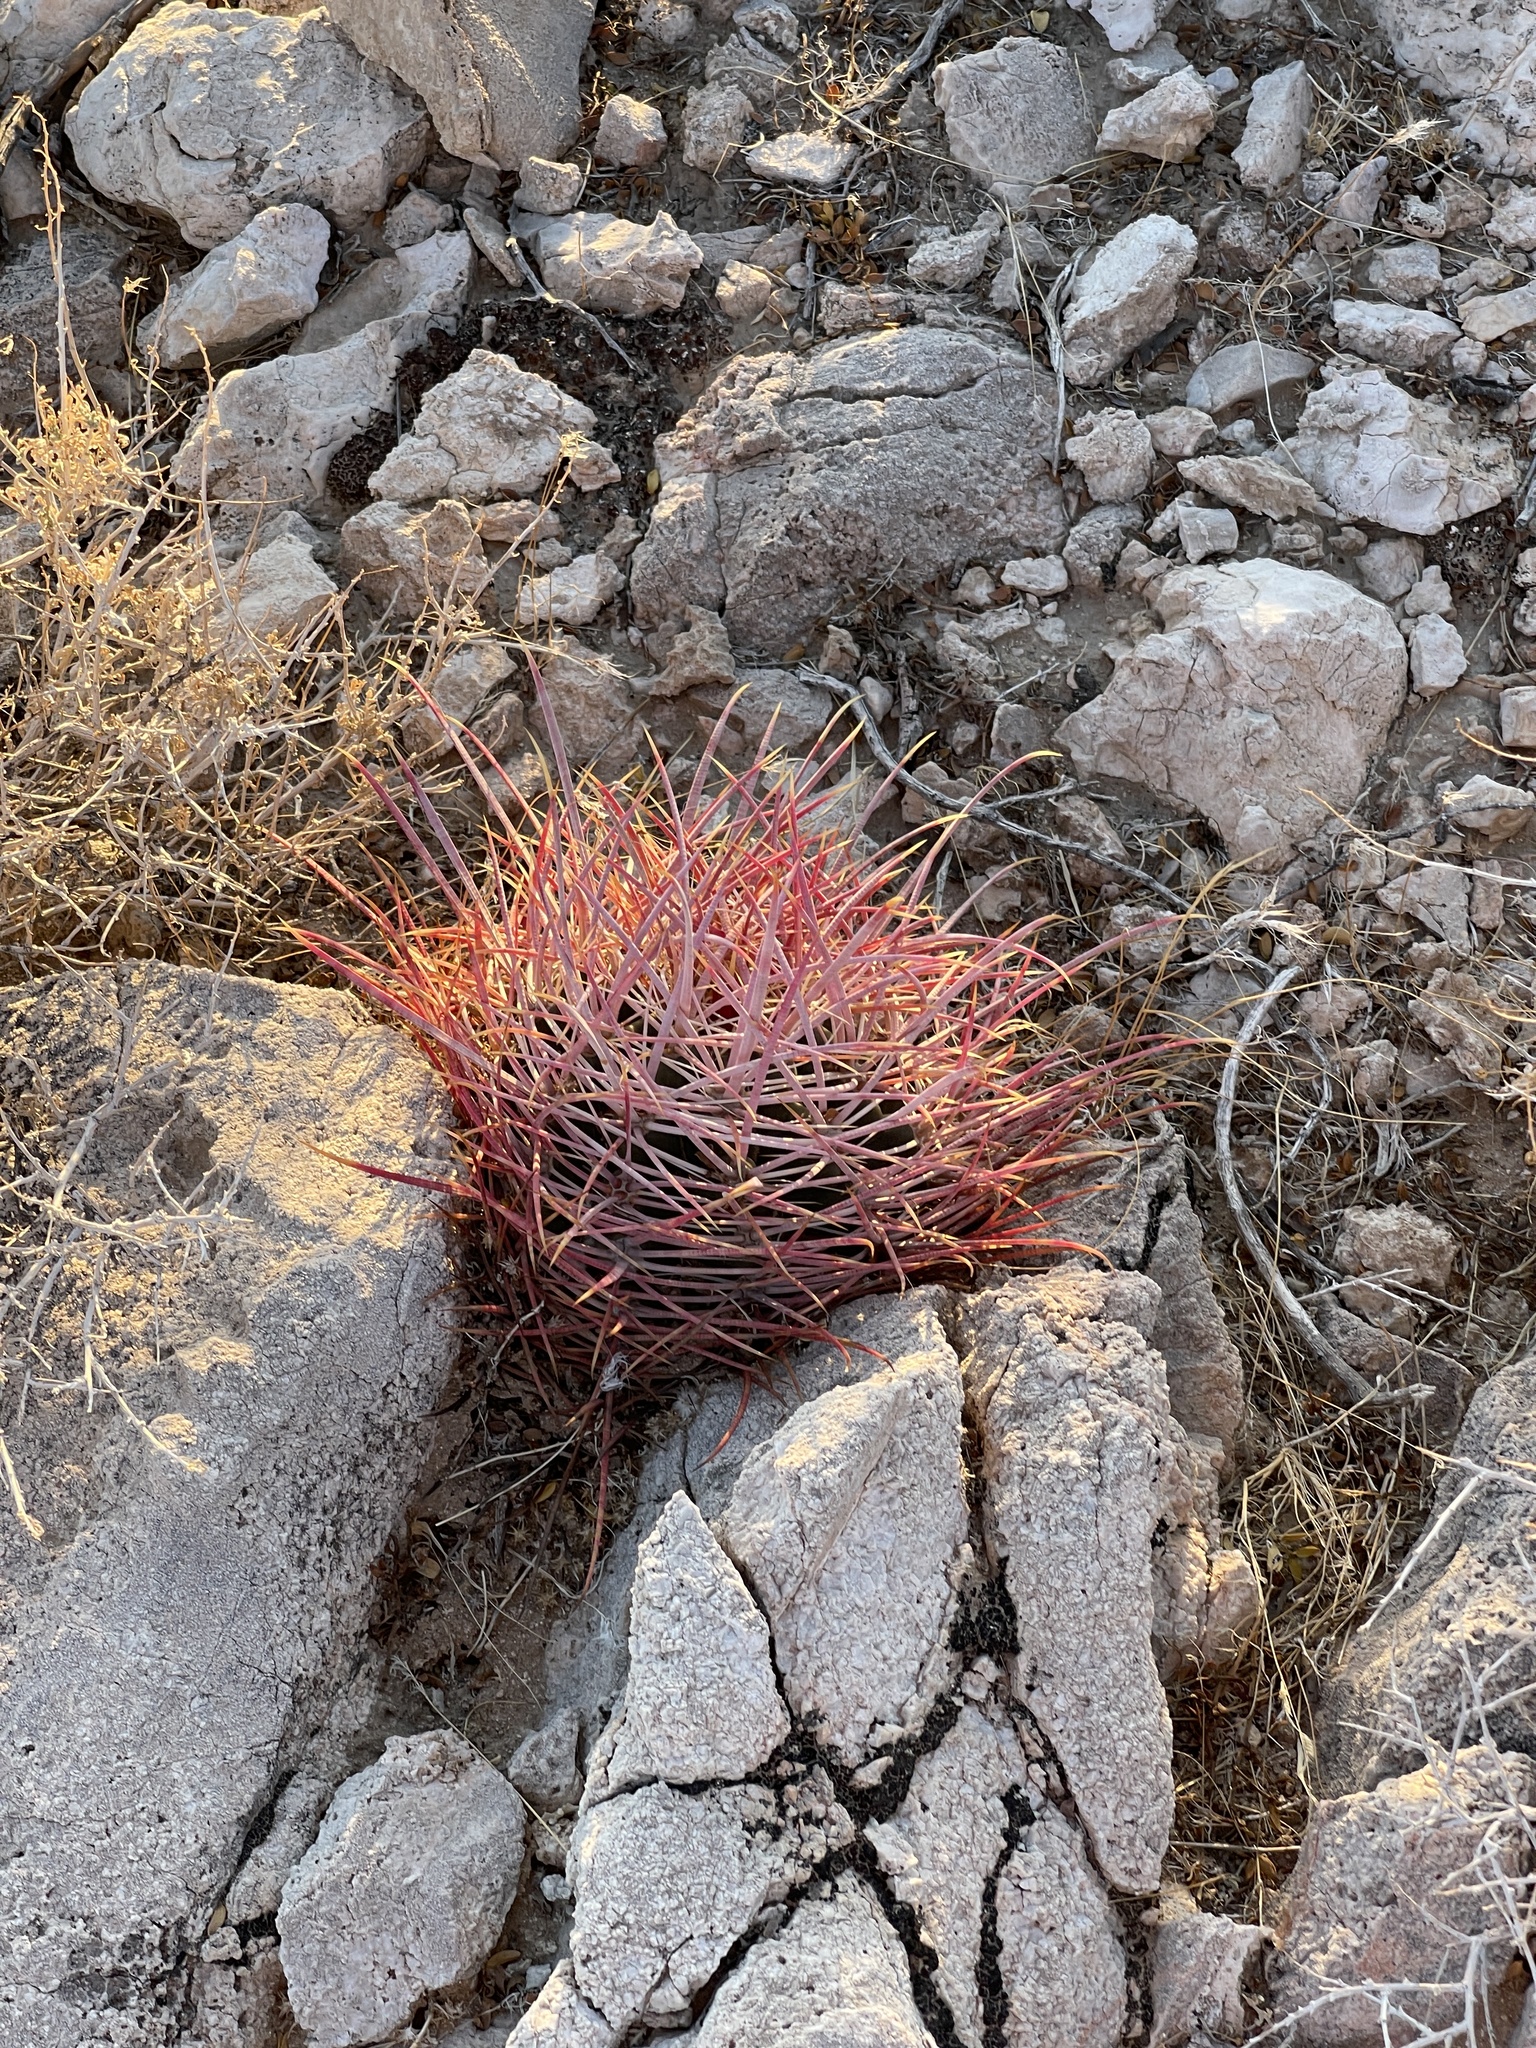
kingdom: Plantae
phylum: Tracheophyta
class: Magnoliopsida
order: Caryophyllales
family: Cactaceae
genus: Ferocactus
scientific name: Ferocactus cylindraceus
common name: California barrel cactus
